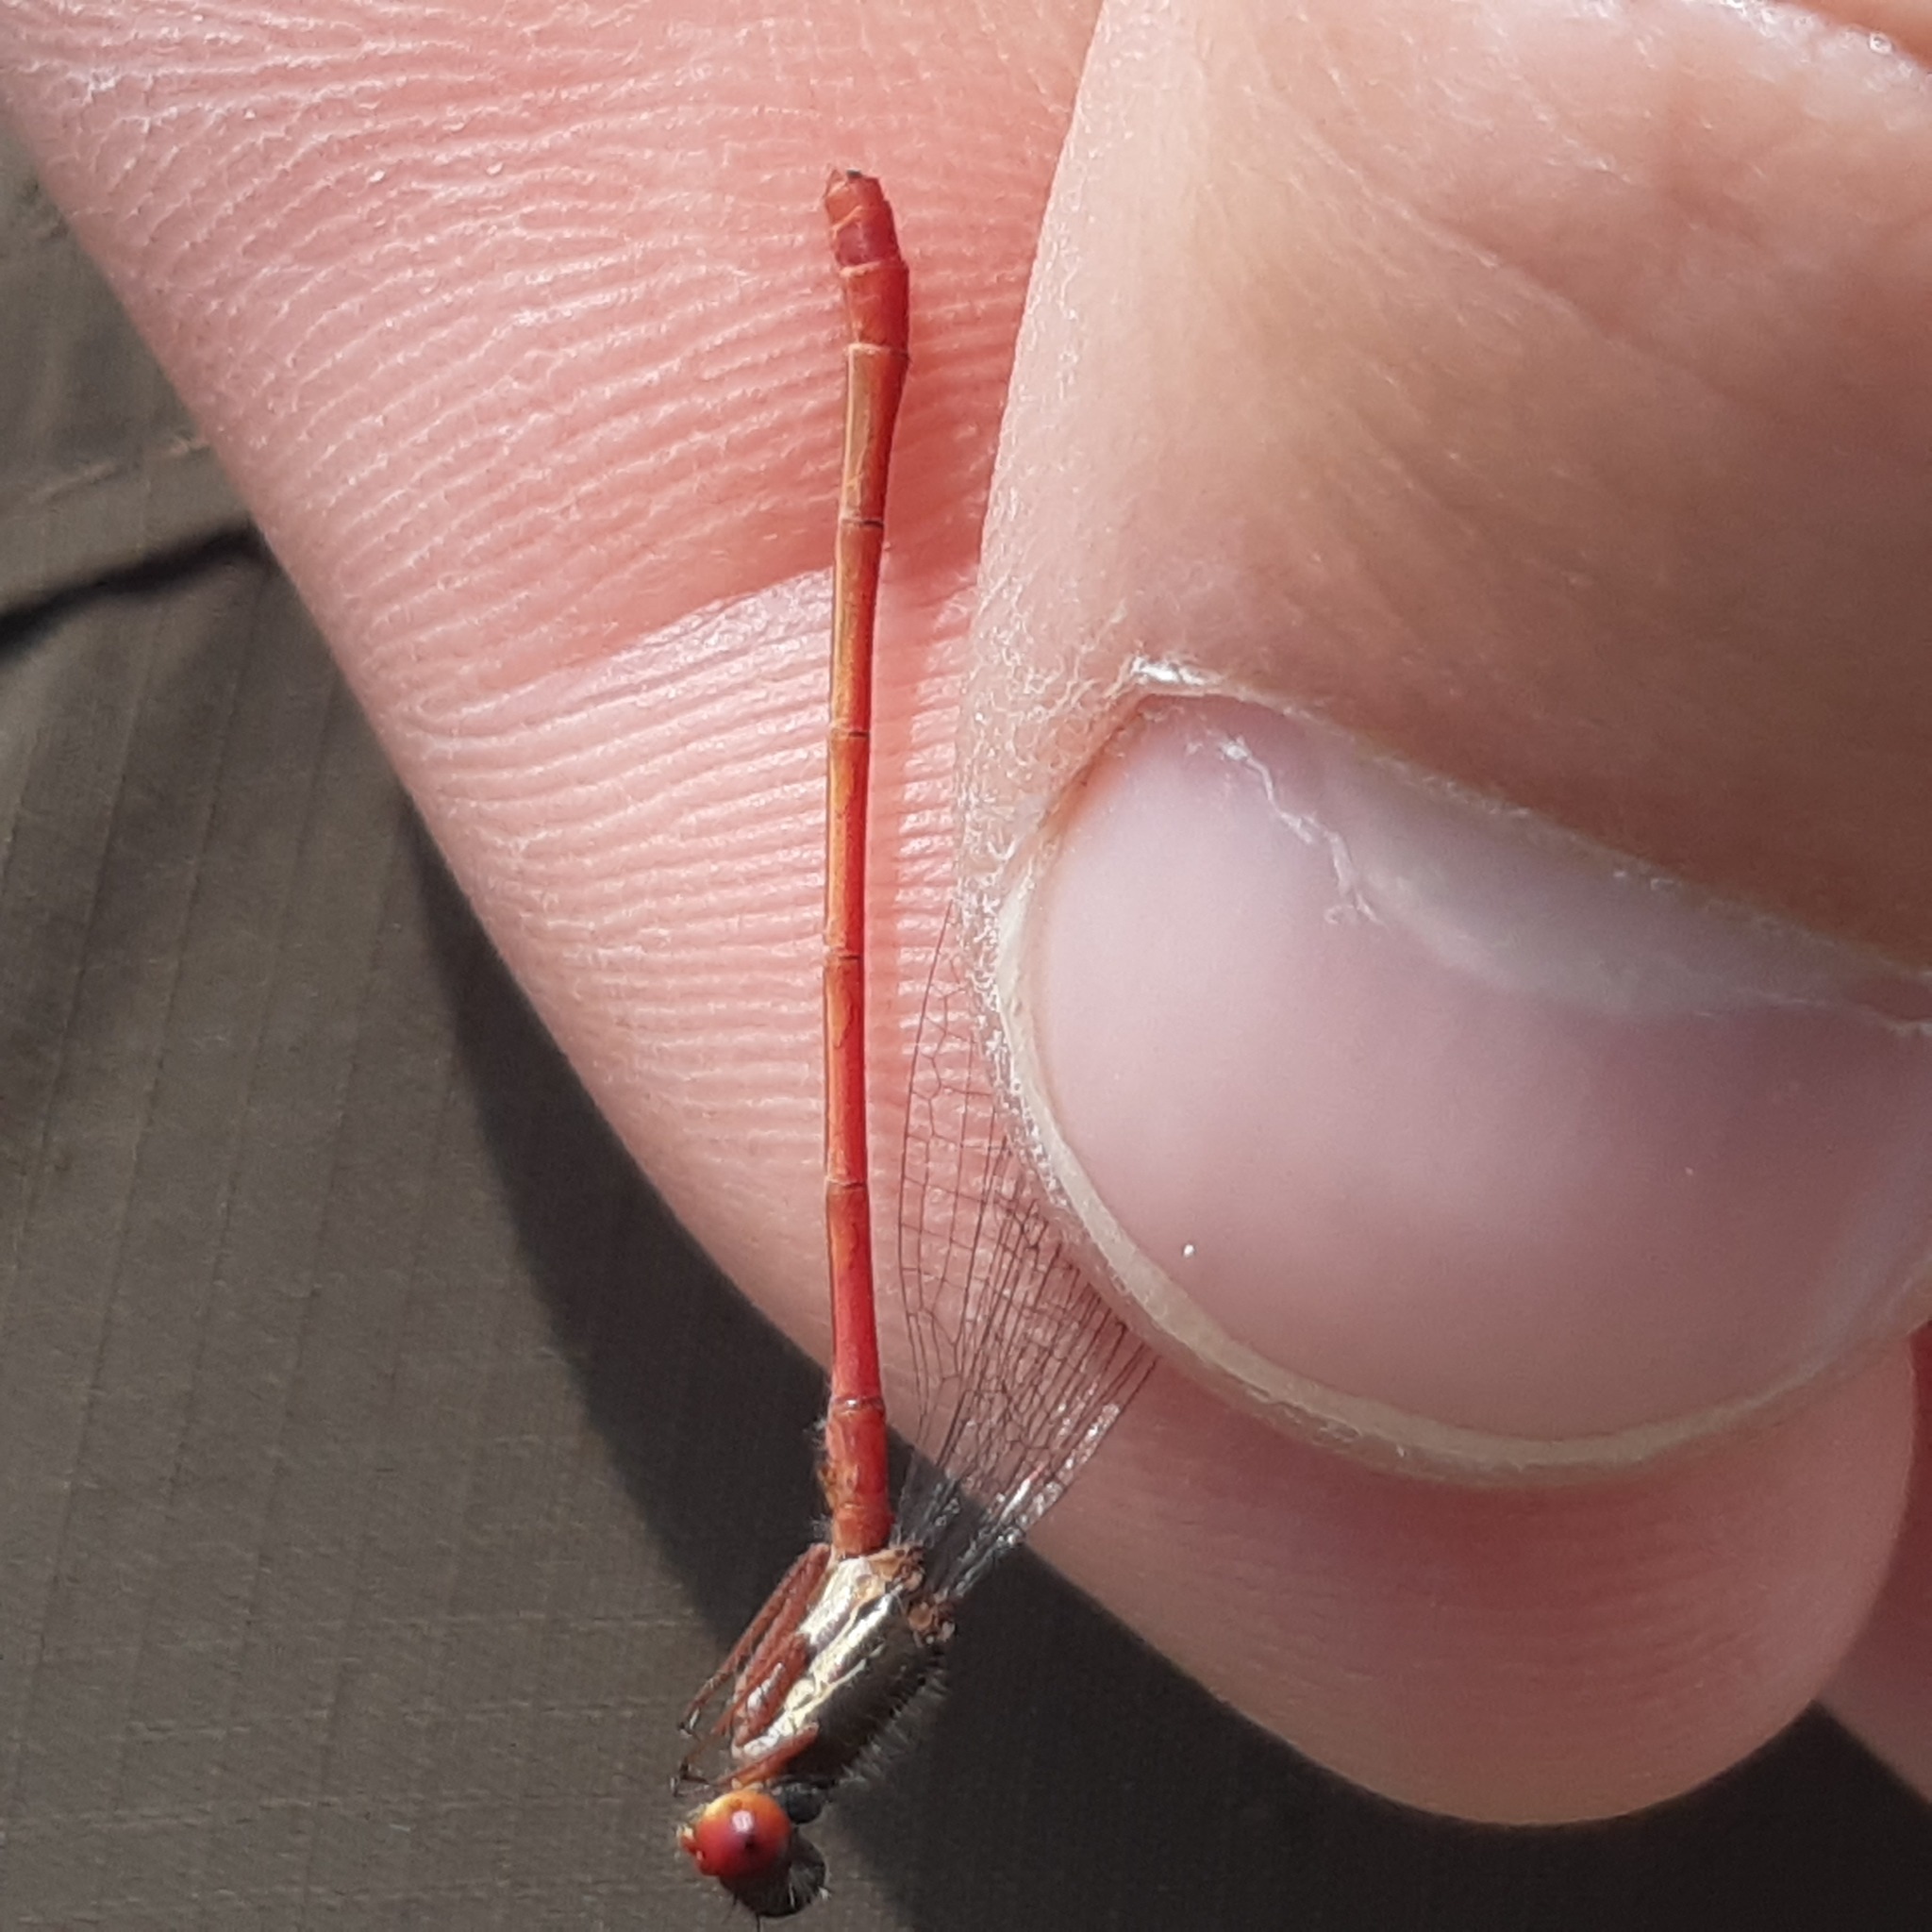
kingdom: Animalia
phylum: Arthropoda
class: Insecta
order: Odonata
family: Coenagrionidae
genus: Ceriagrion
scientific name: Ceriagrion tenellum
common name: Small red damselfly
